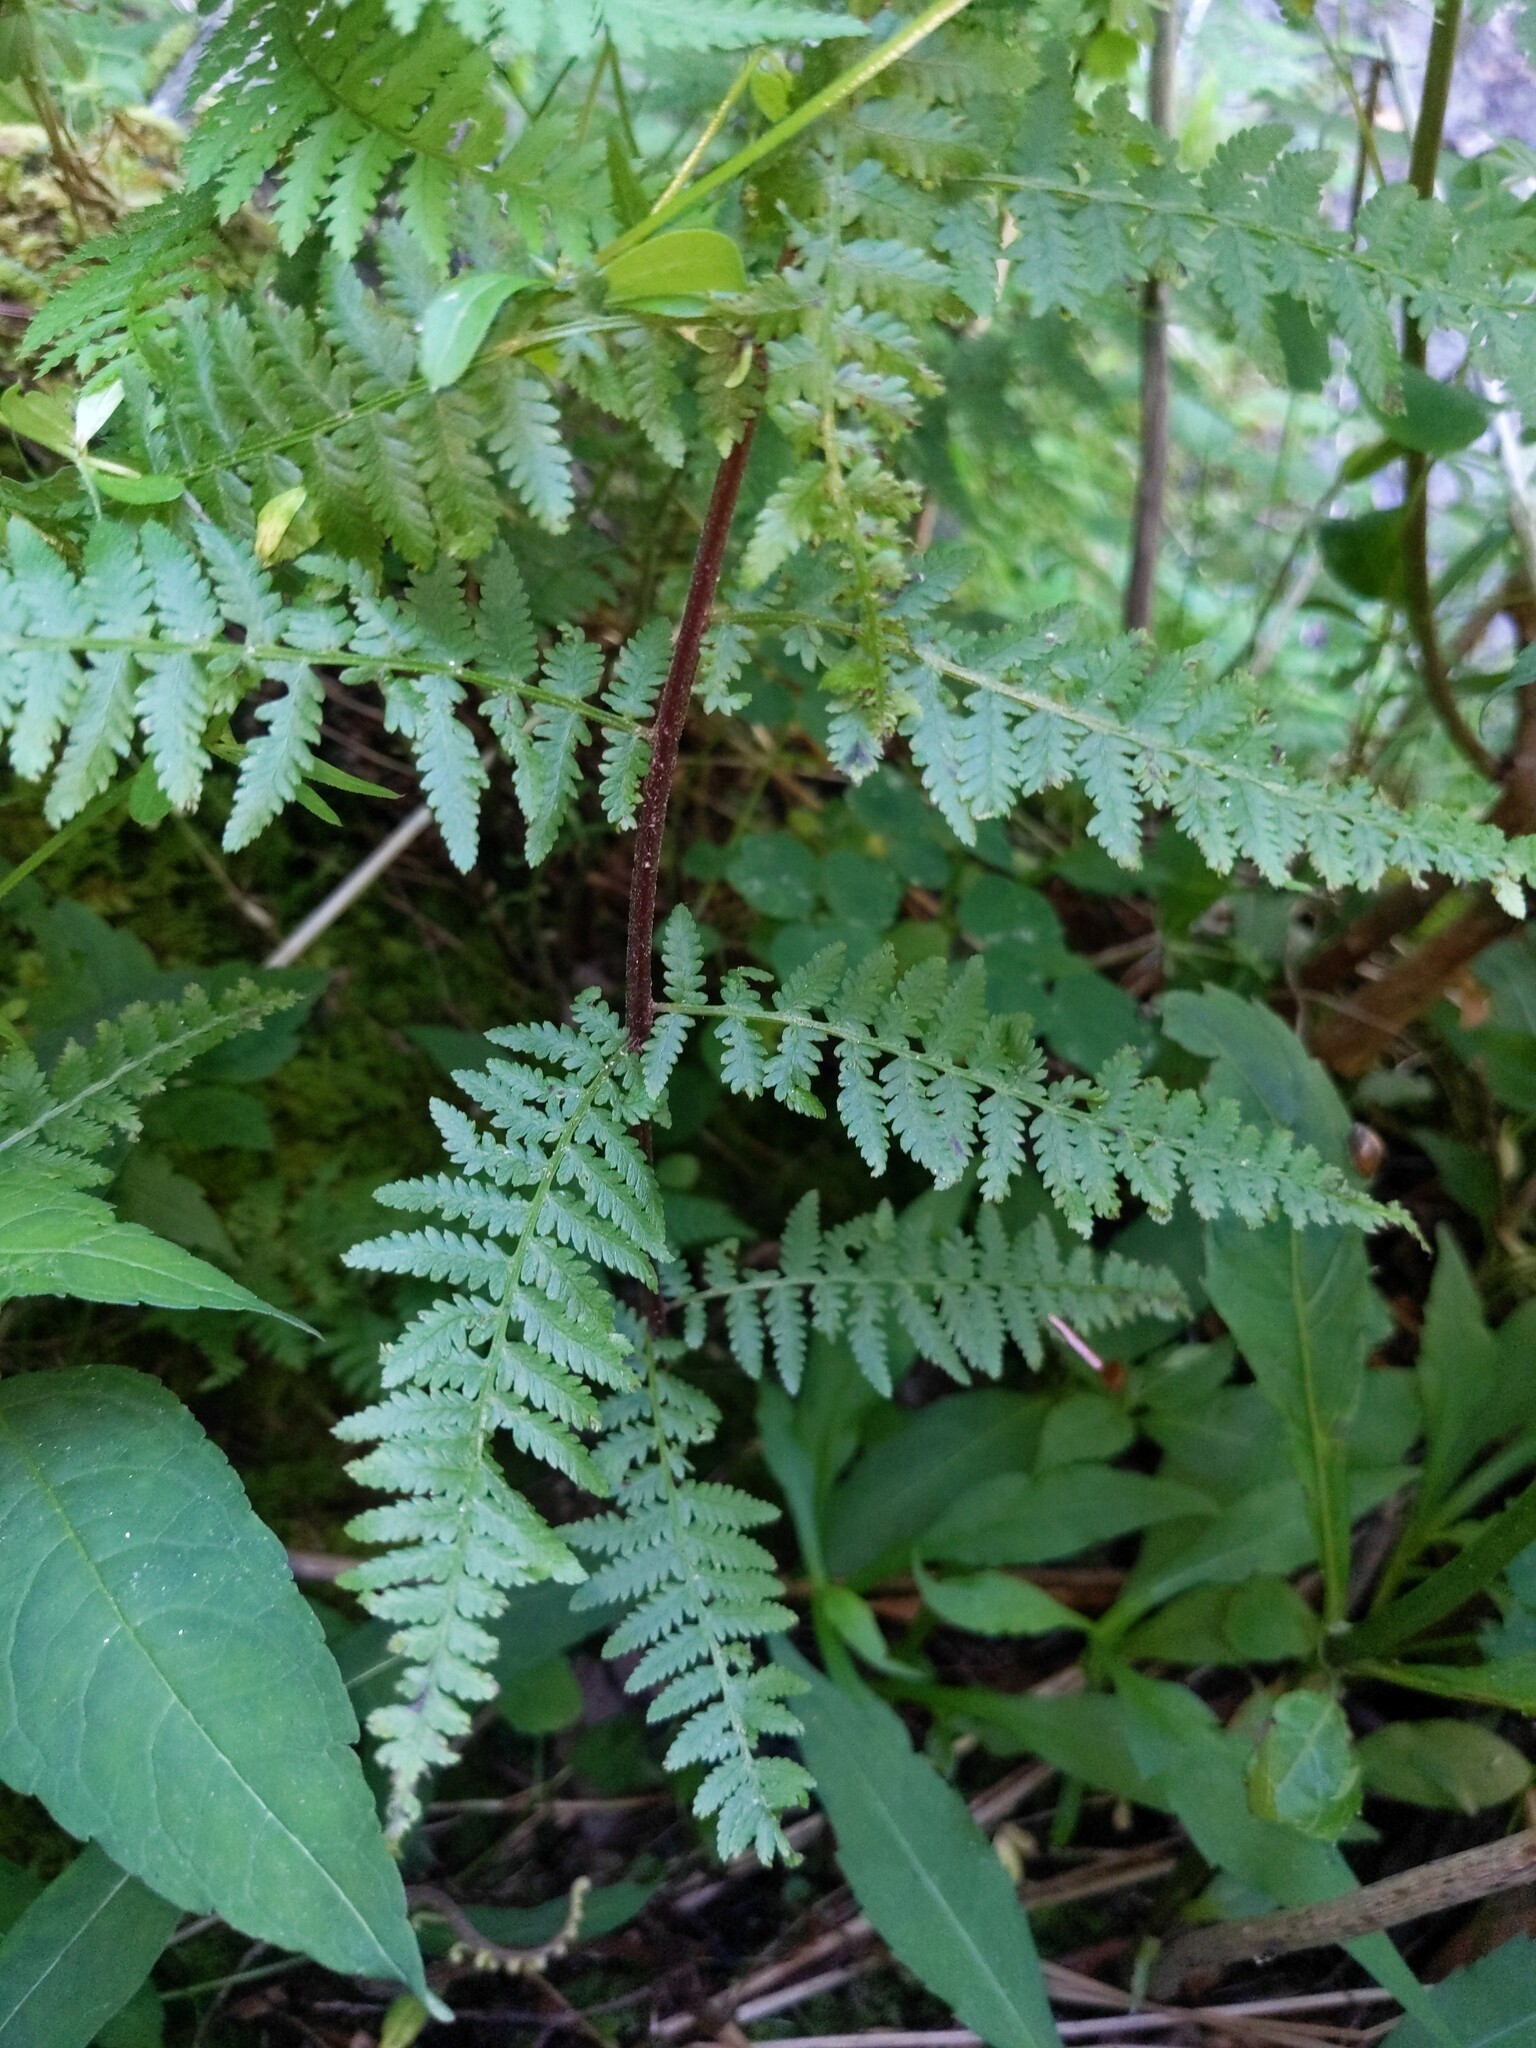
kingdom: Plantae
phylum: Tracheophyta
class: Polypodiopsida
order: Polypodiales
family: Athyriaceae
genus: Athyrium
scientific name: Athyrium asplenioides
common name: Southern lady fern
